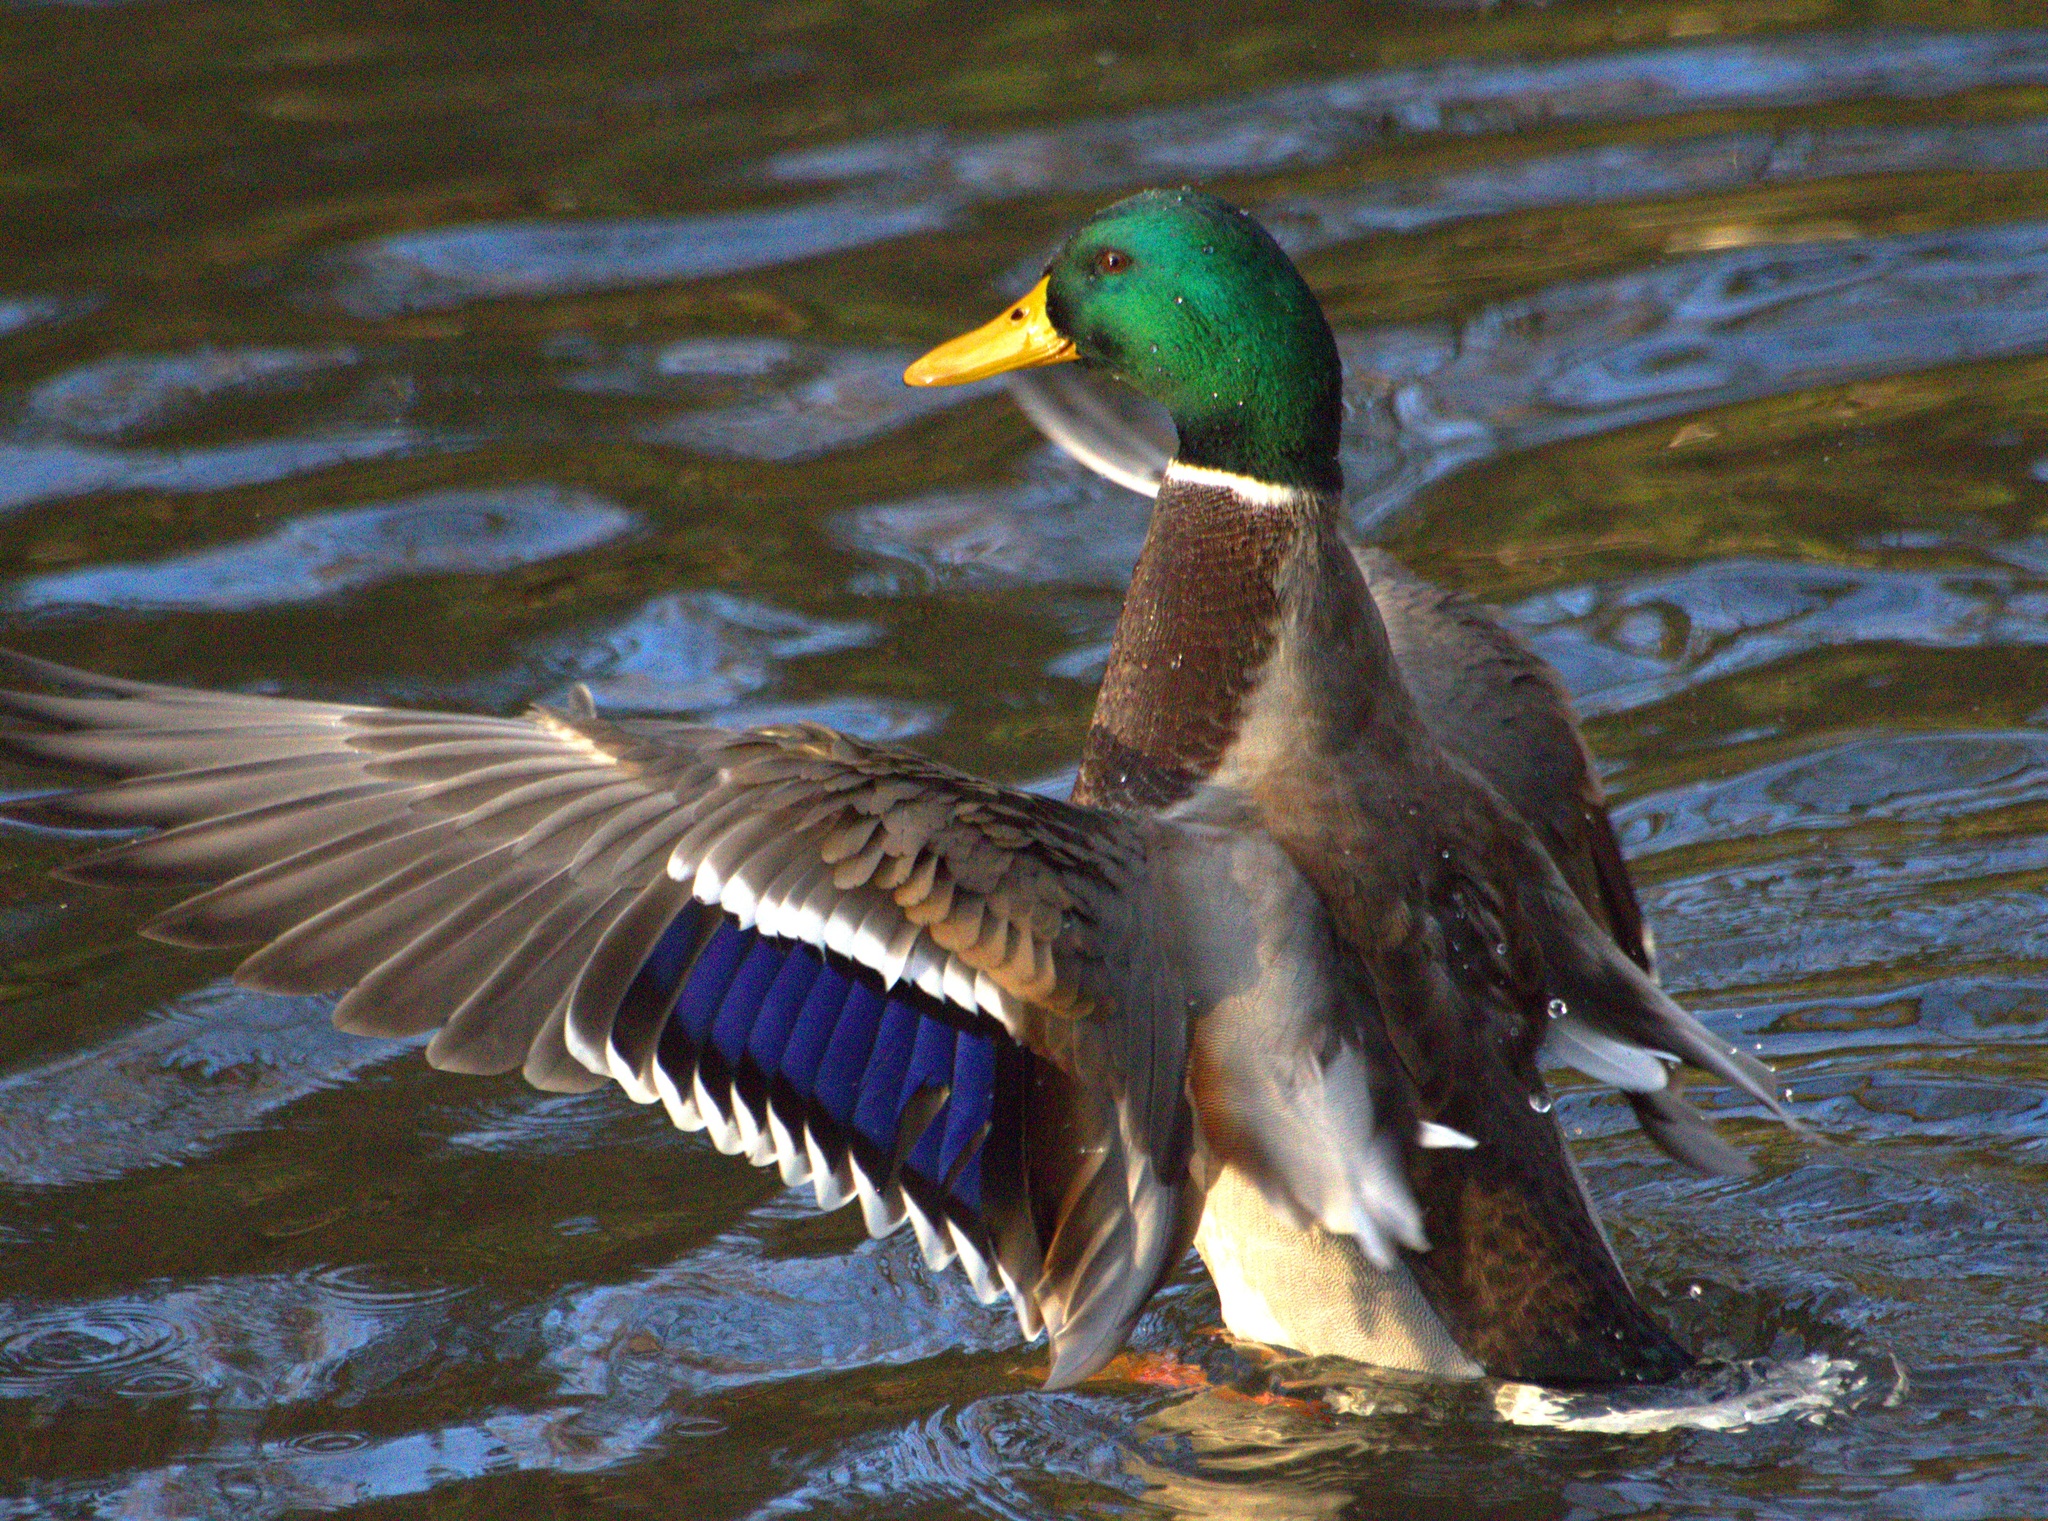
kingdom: Animalia
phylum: Chordata
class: Aves
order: Anseriformes
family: Anatidae
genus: Anas
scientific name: Anas platyrhynchos
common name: Mallard
